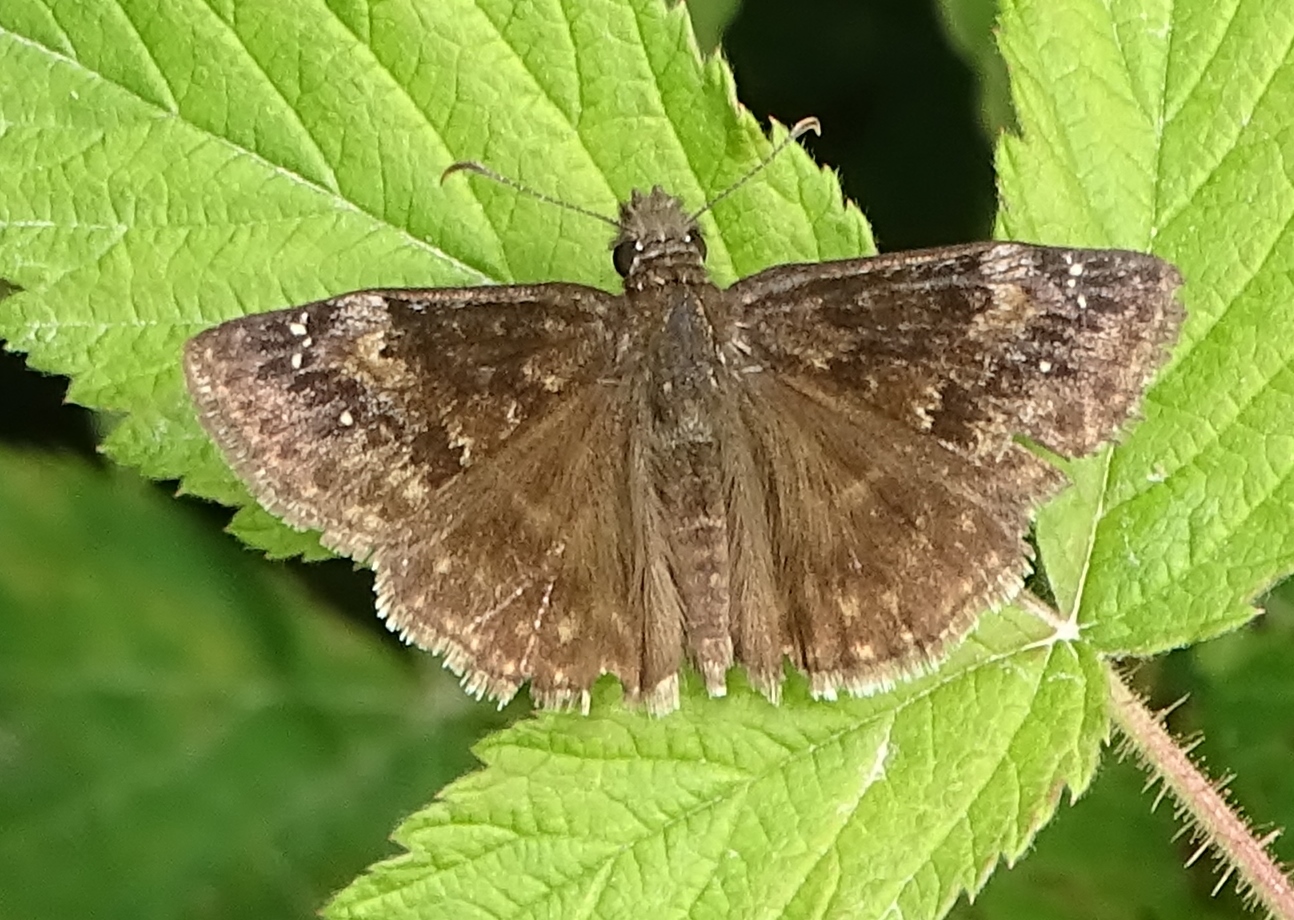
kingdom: Animalia
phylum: Arthropoda
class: Insecta
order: Lepidoptera
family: Hesperiidae
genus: Erynnis
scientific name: Erynnis baptisiae
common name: Wild indigo duskywing
